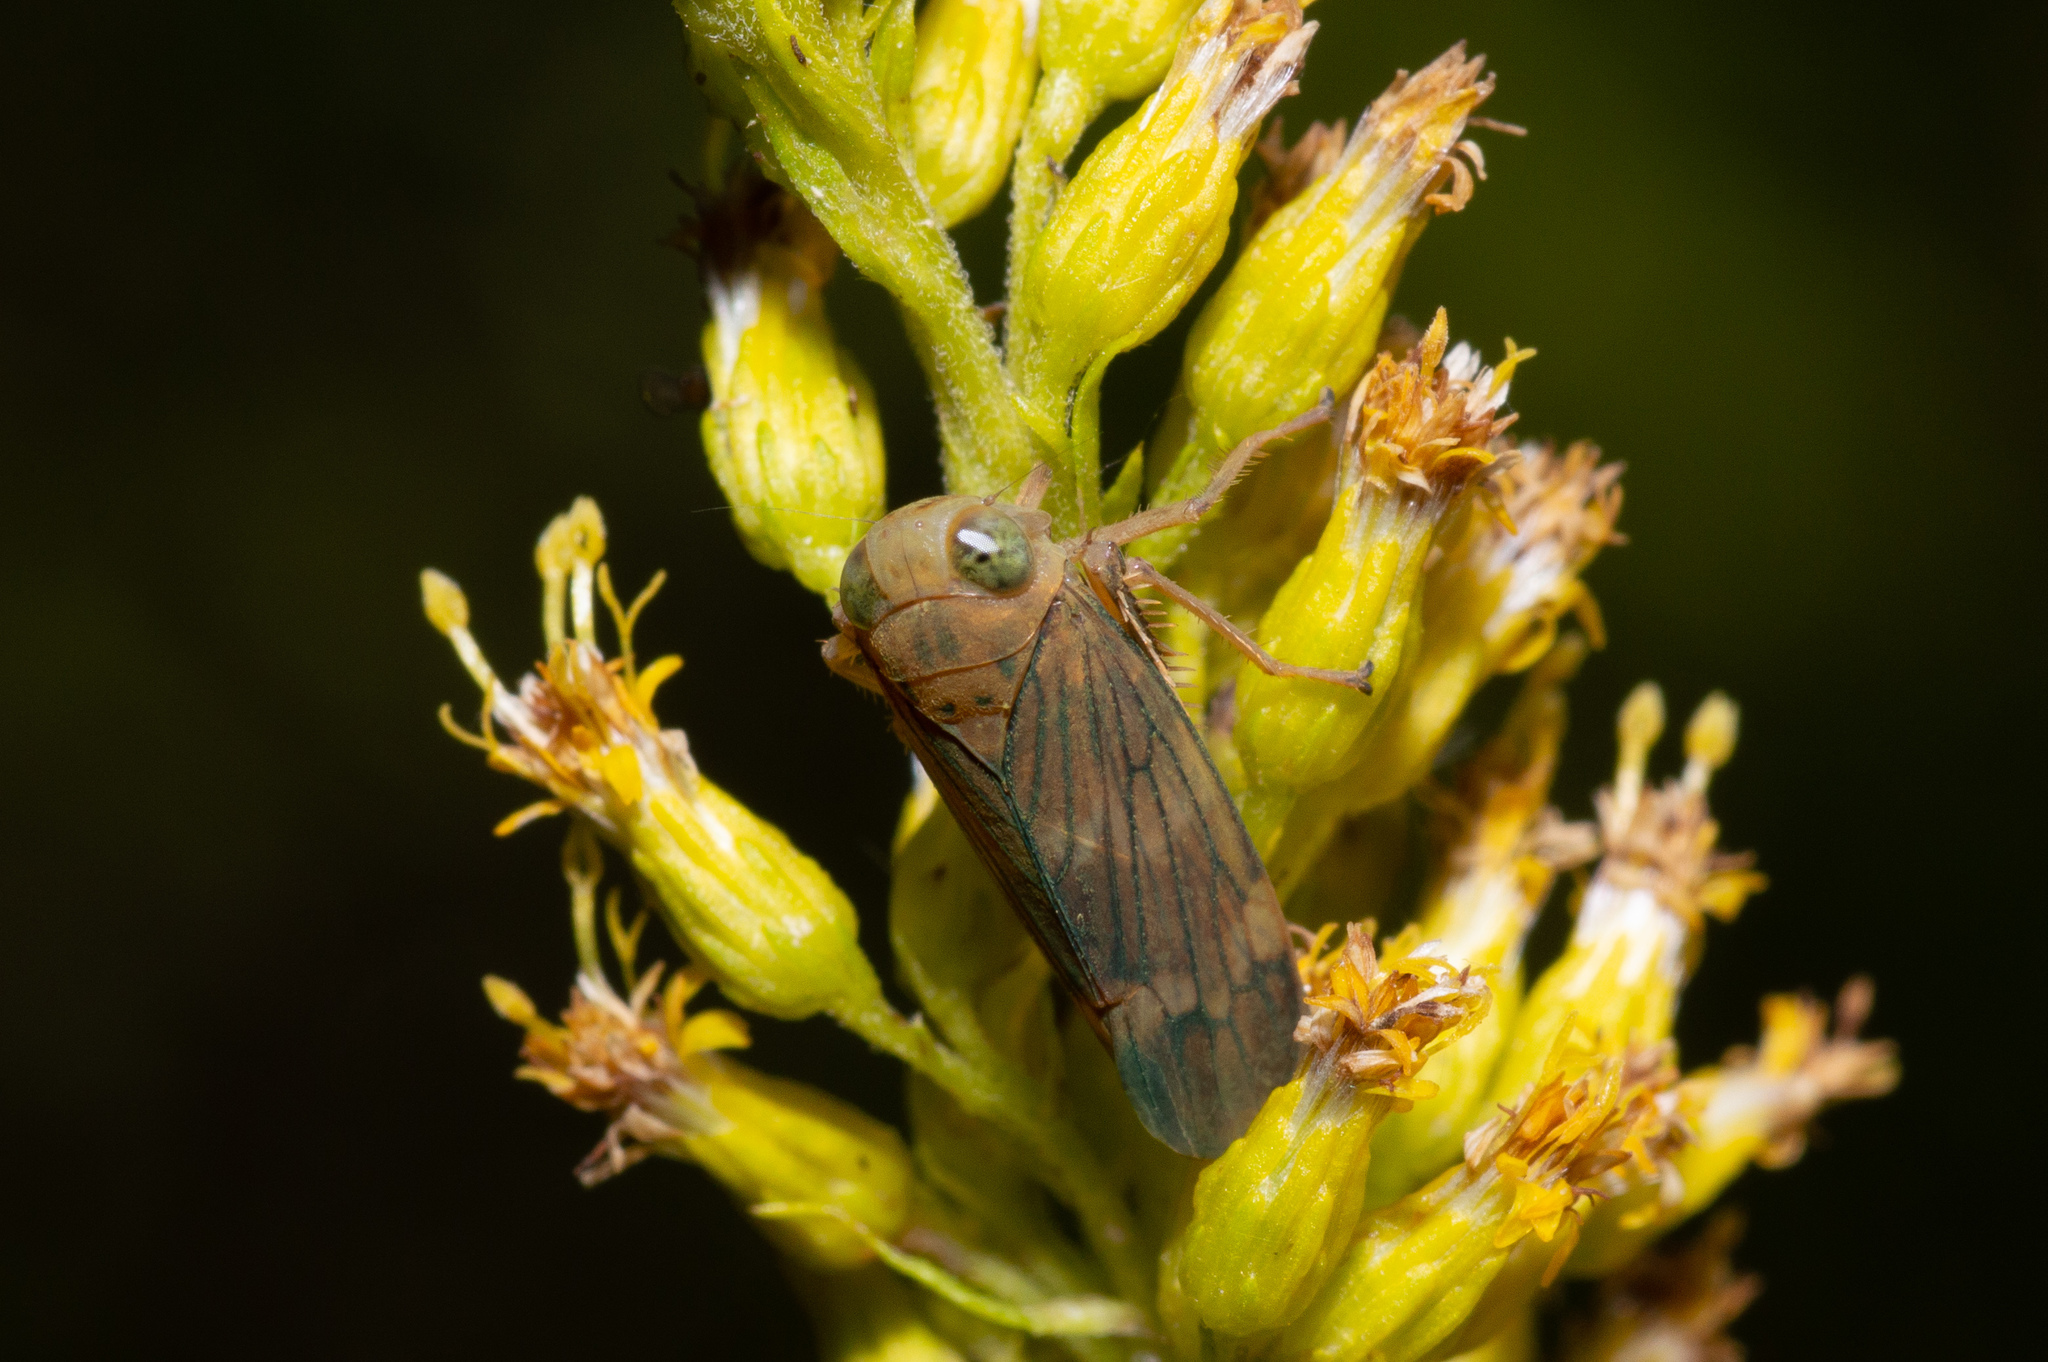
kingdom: Animalia
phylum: Arthropoda
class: Insecta
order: Hemiptera
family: Cicadellidae
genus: Jikradia
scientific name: Jikradia olitoria
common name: Coppery leafhopper
